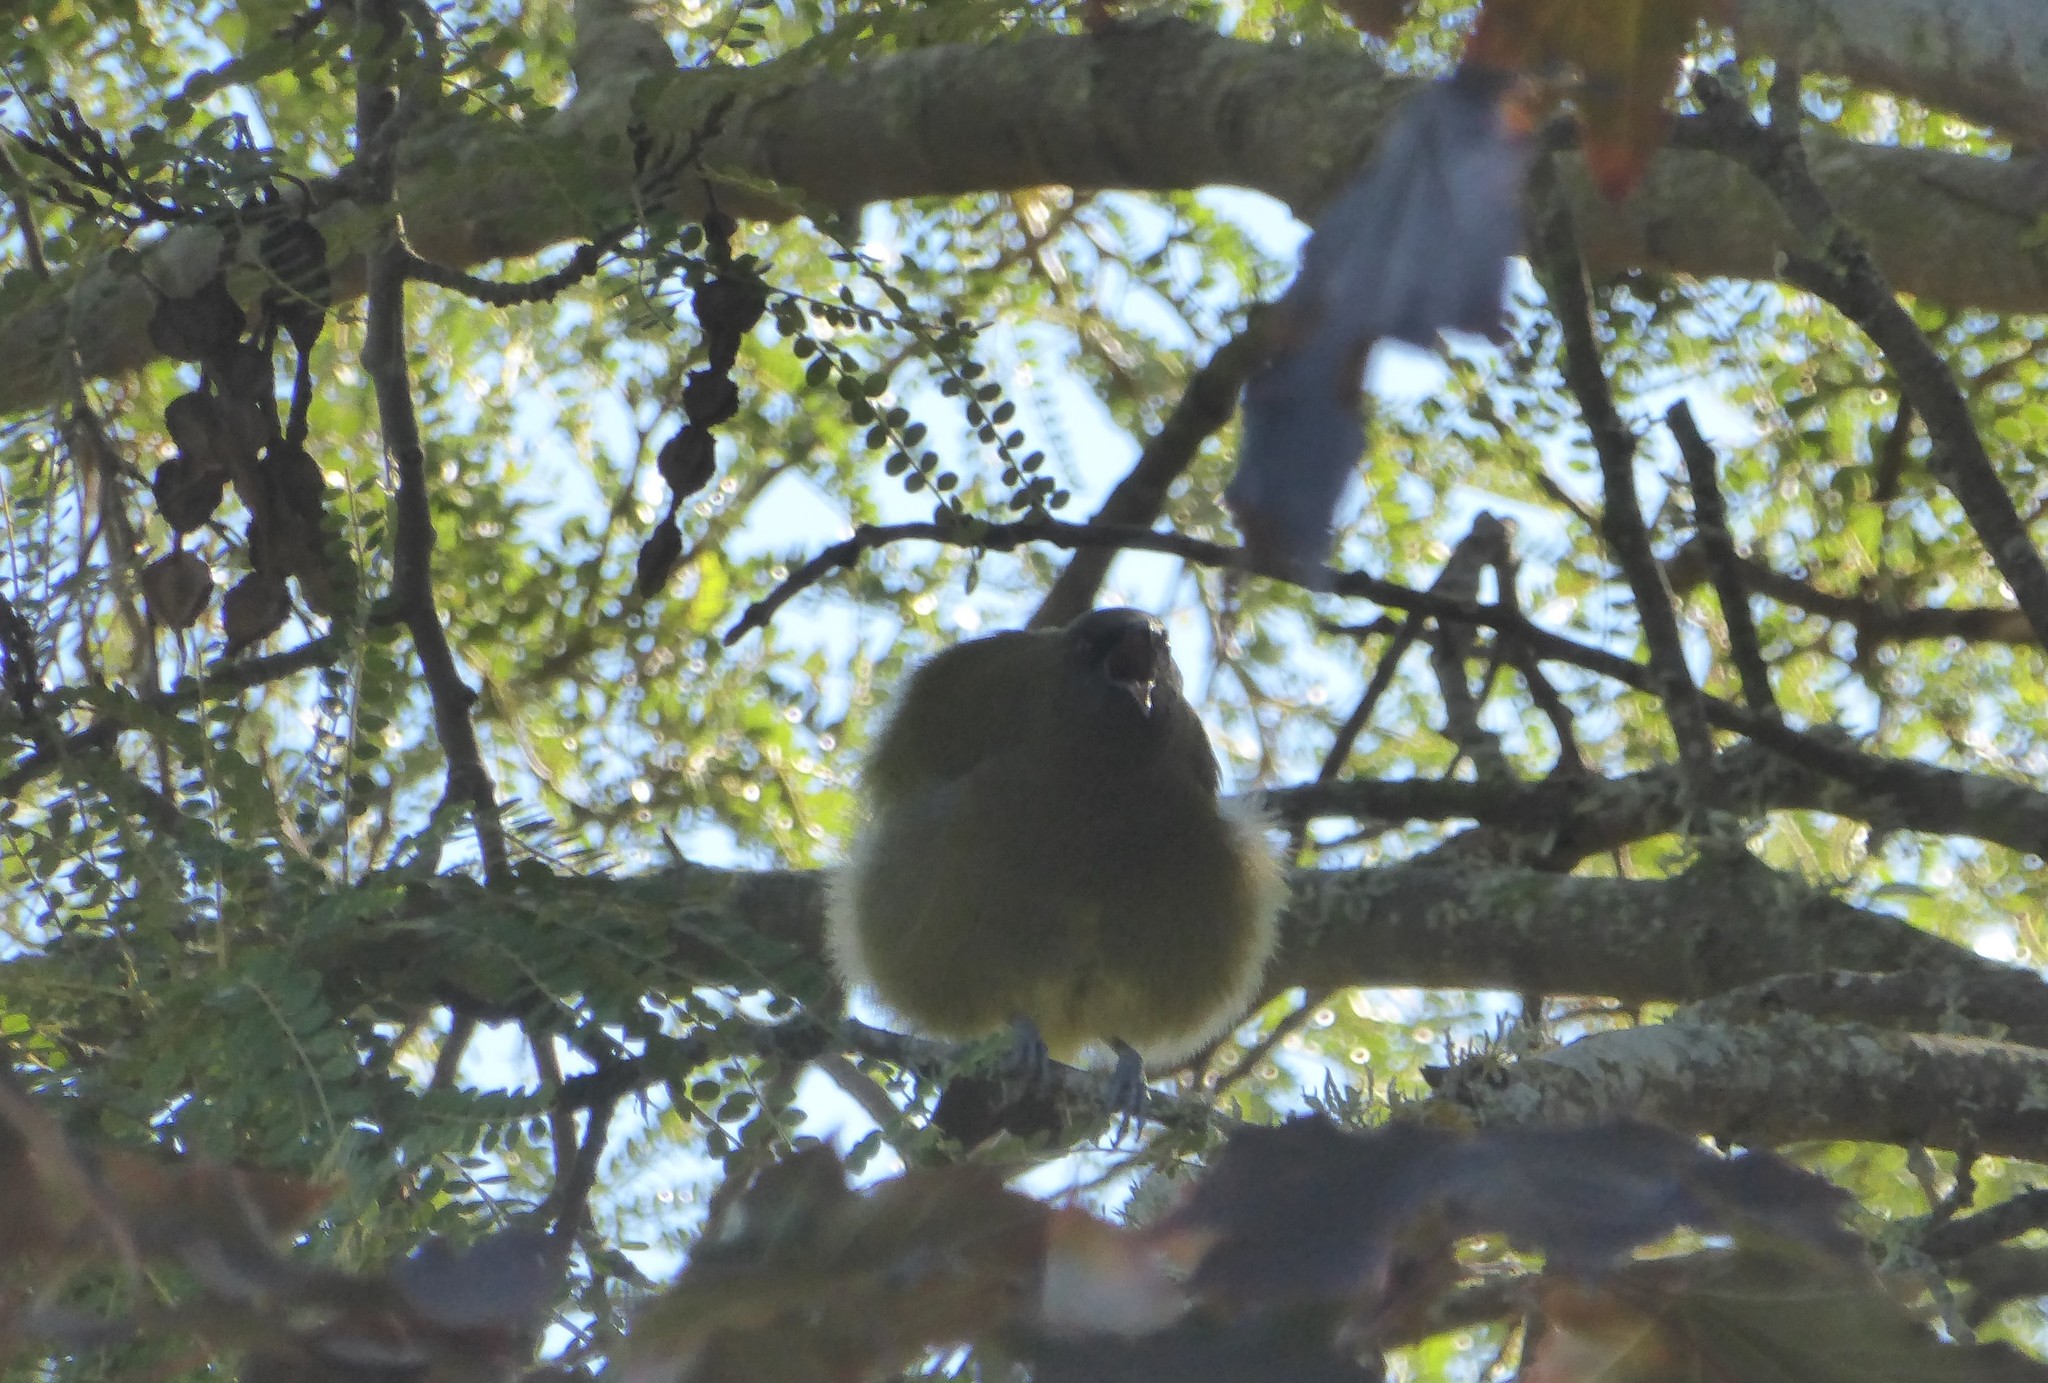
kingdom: Animalia
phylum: Chordata
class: Aves
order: Passeriformes
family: Meliphagidae
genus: Anthornis
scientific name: Anthornis melanura
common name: New zealand bellbird
